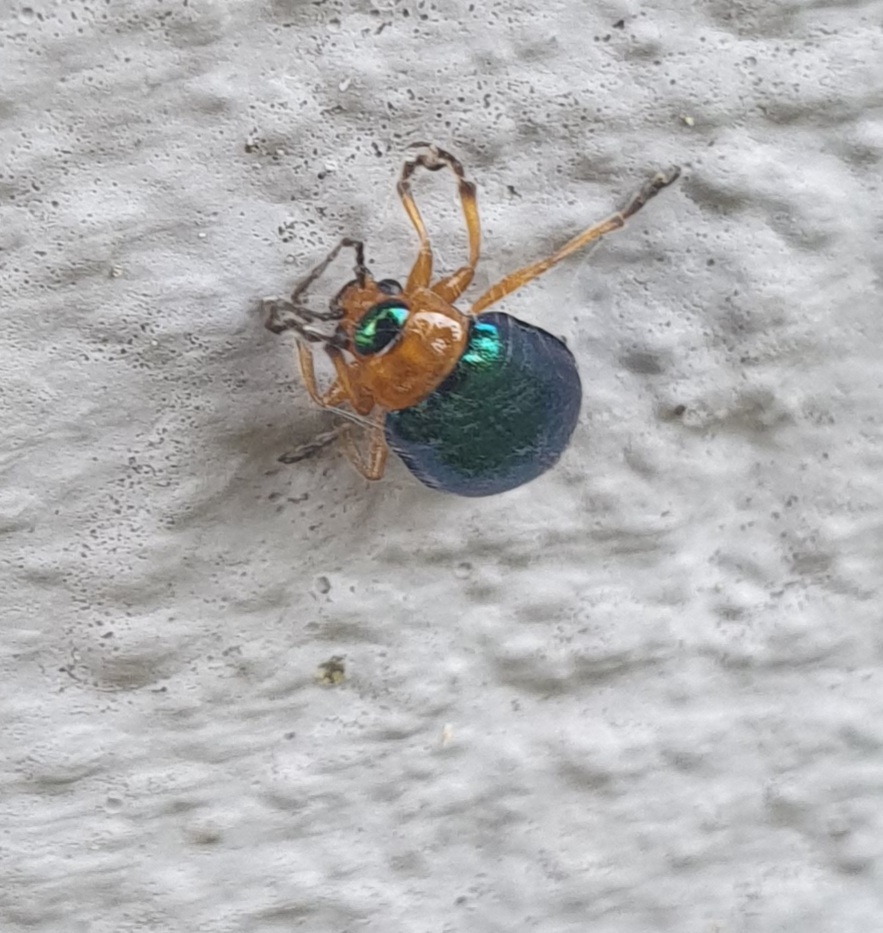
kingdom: Animalia
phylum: Arthropoda
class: Insecta
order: Coleoptera
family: Chrysomelidae
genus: Sermylassa
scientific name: Sermylassa halensis
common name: Leaf beetle
